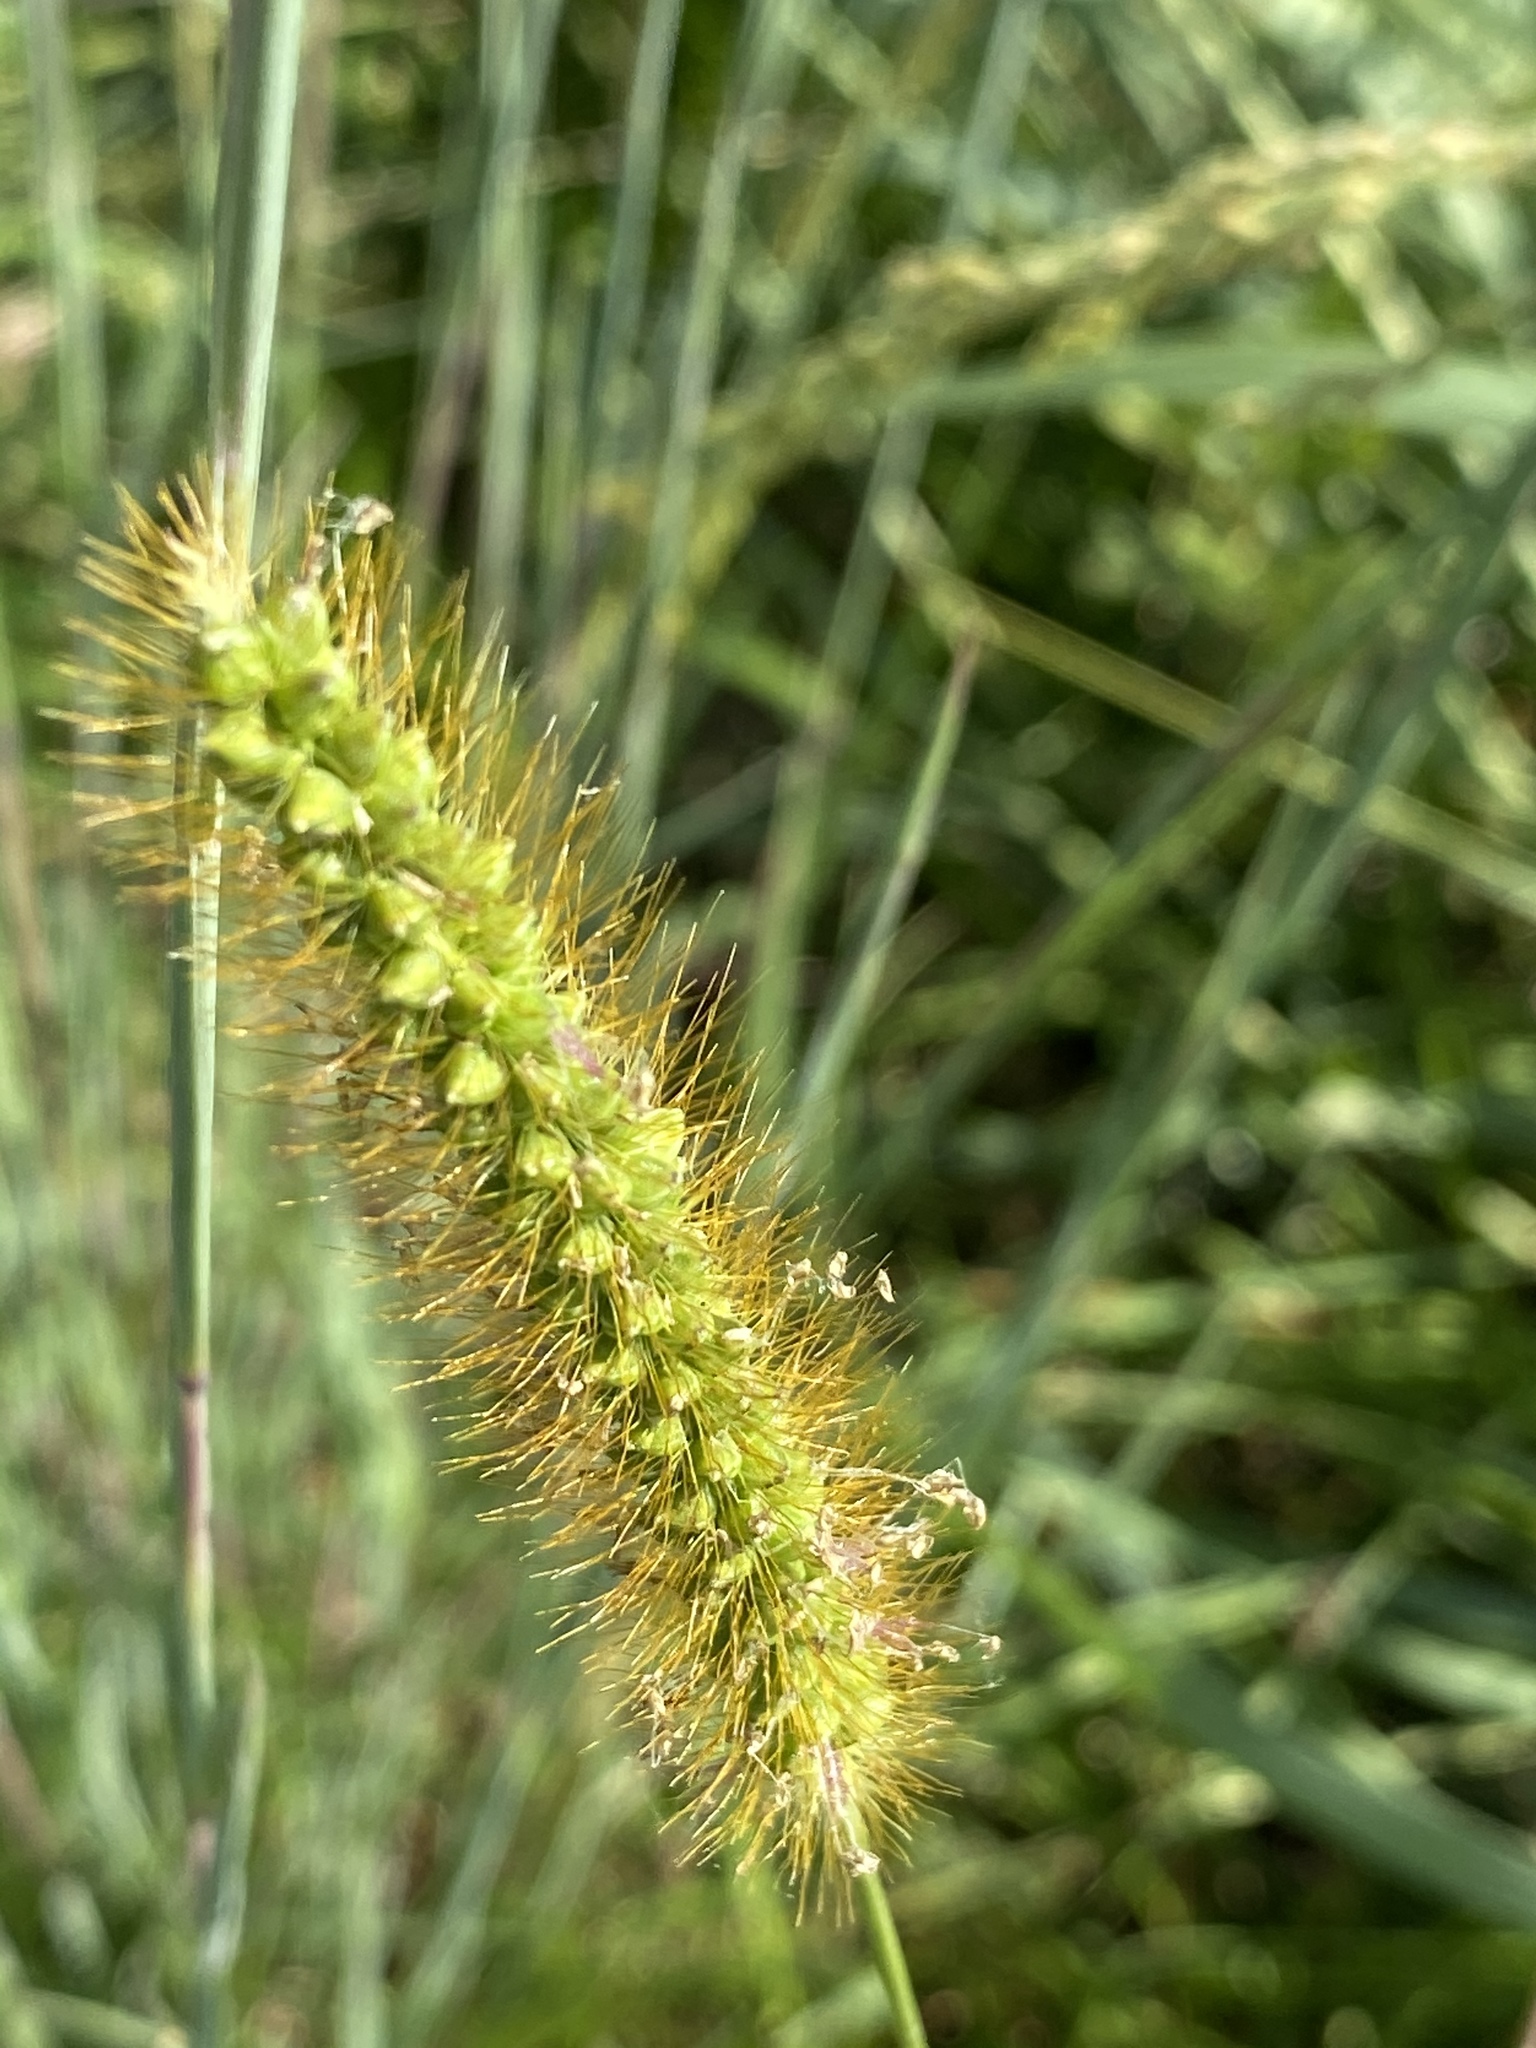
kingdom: Plantae
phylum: Tracheophyta
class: Liliopsida
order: Poales
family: Poaceae
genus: Setaria
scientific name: Setaria pumila
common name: Yellow bristle-grass
